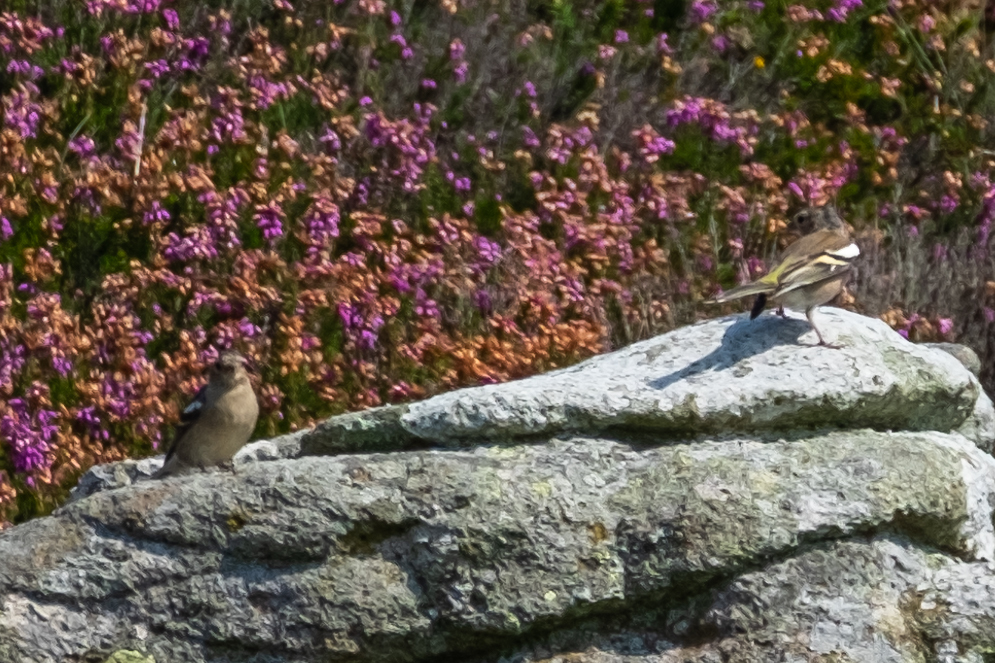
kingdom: Animalia
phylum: Chordata
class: Aves
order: Passeriformes
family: Fringillidae
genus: Fringilla
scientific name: Fringilla coelebs
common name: Common chaffinch
